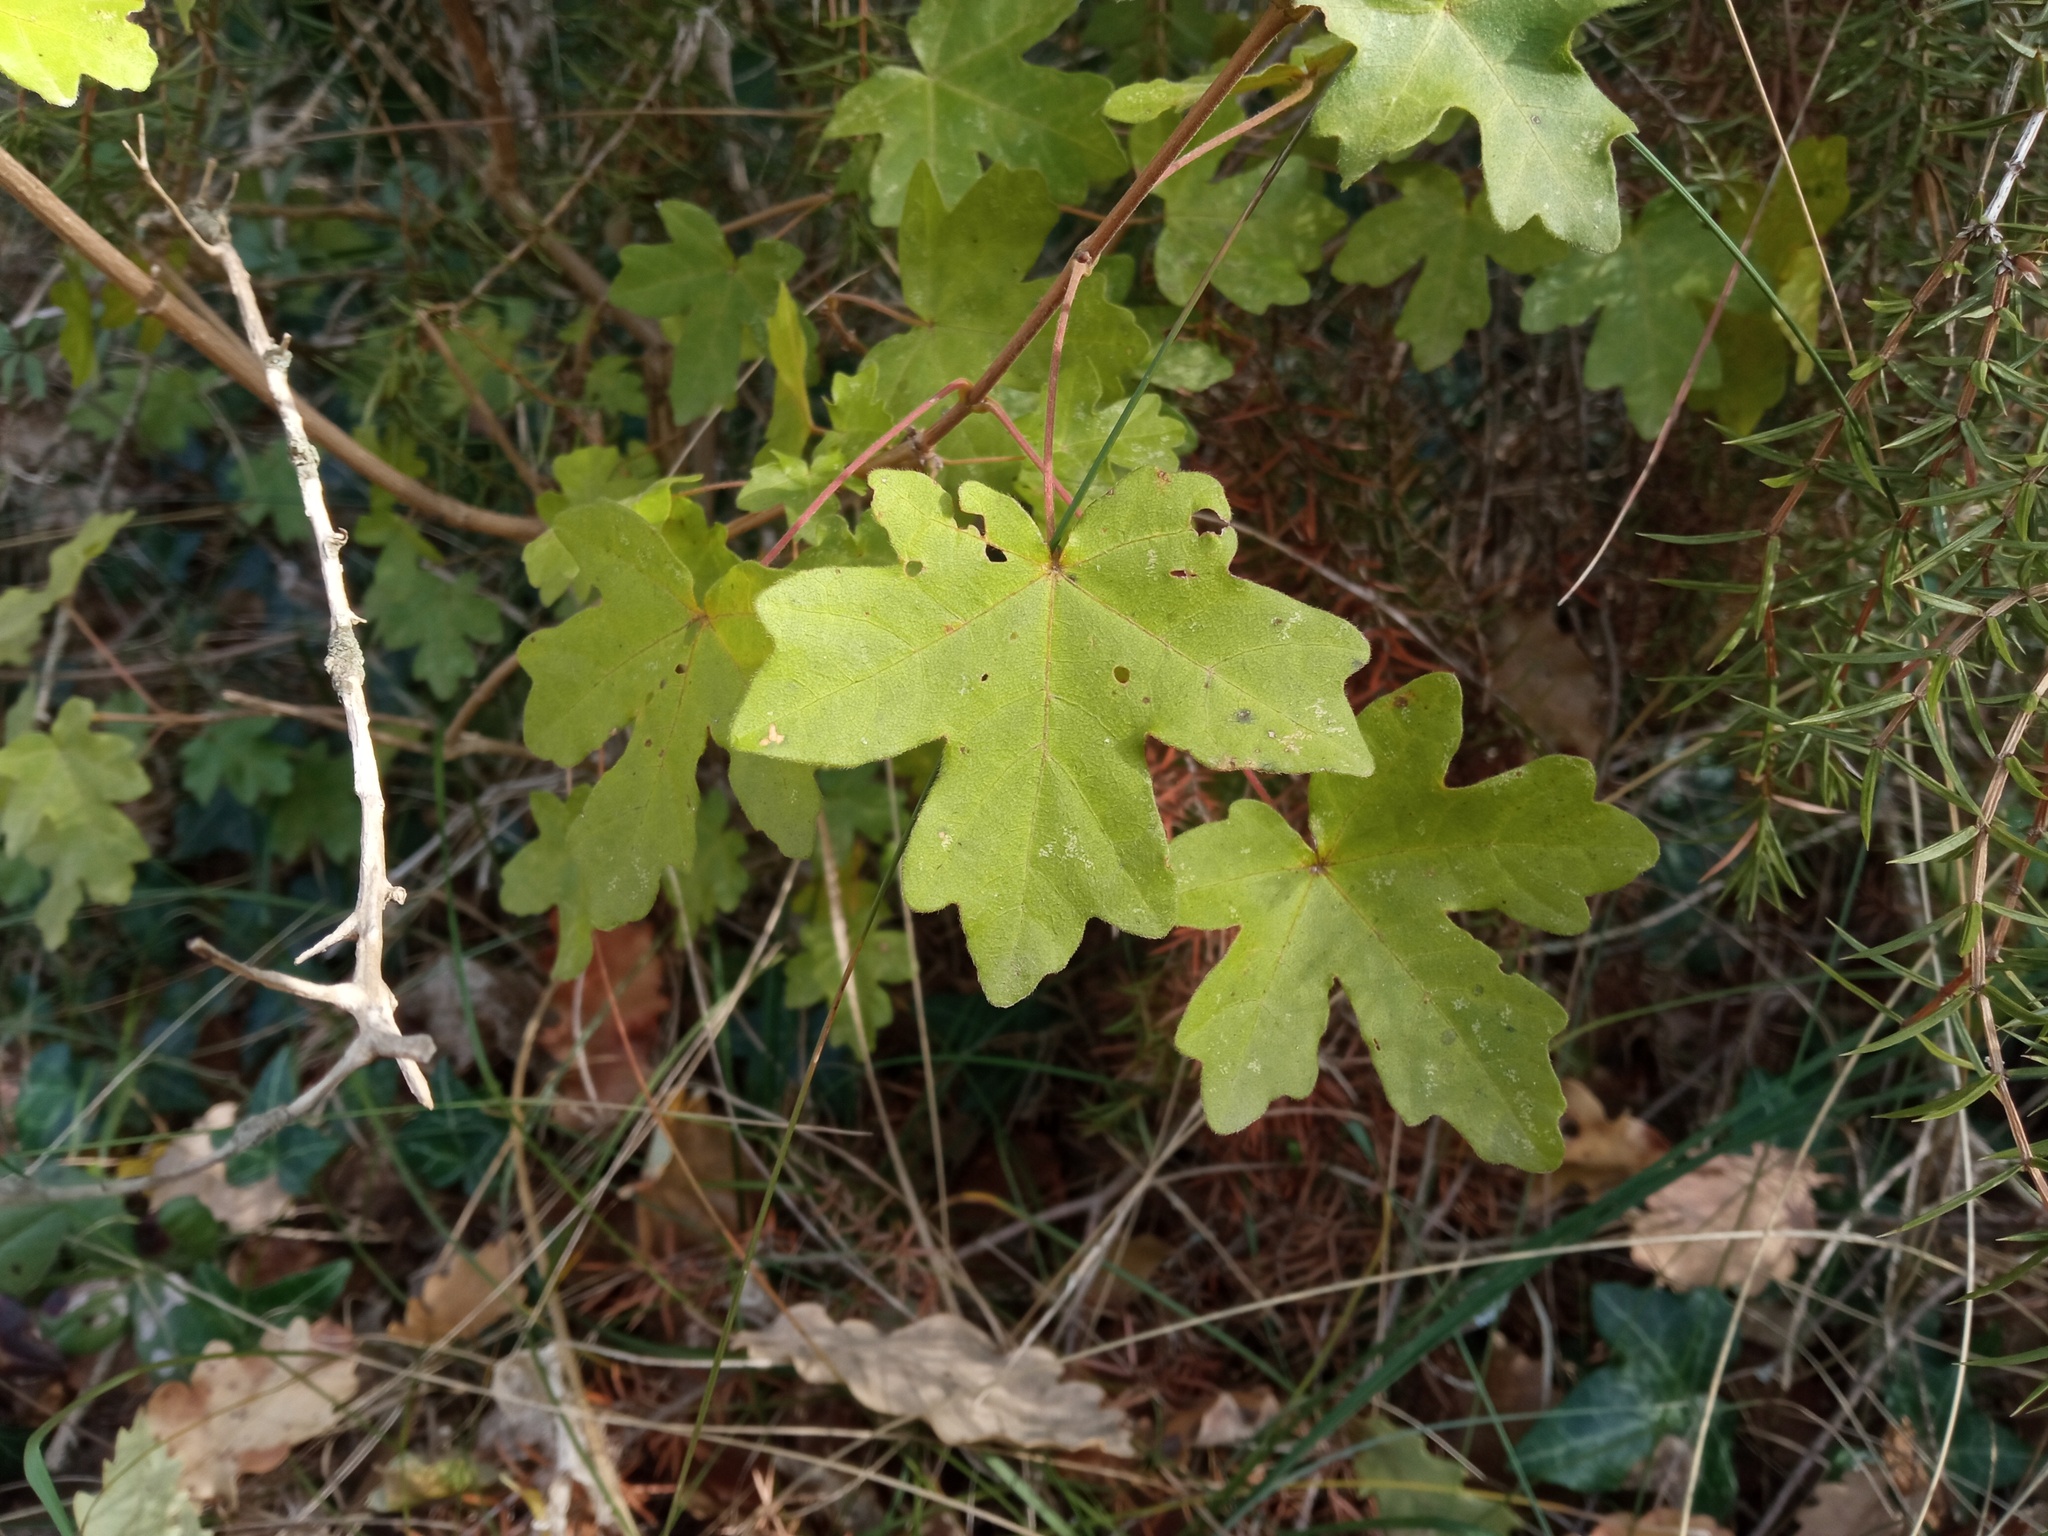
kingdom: Plantae
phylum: Tracheophyta
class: Magnoliopsida
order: Sapindales
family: Sapindaceae
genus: Acer
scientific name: Acer campestre
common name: Field maple
